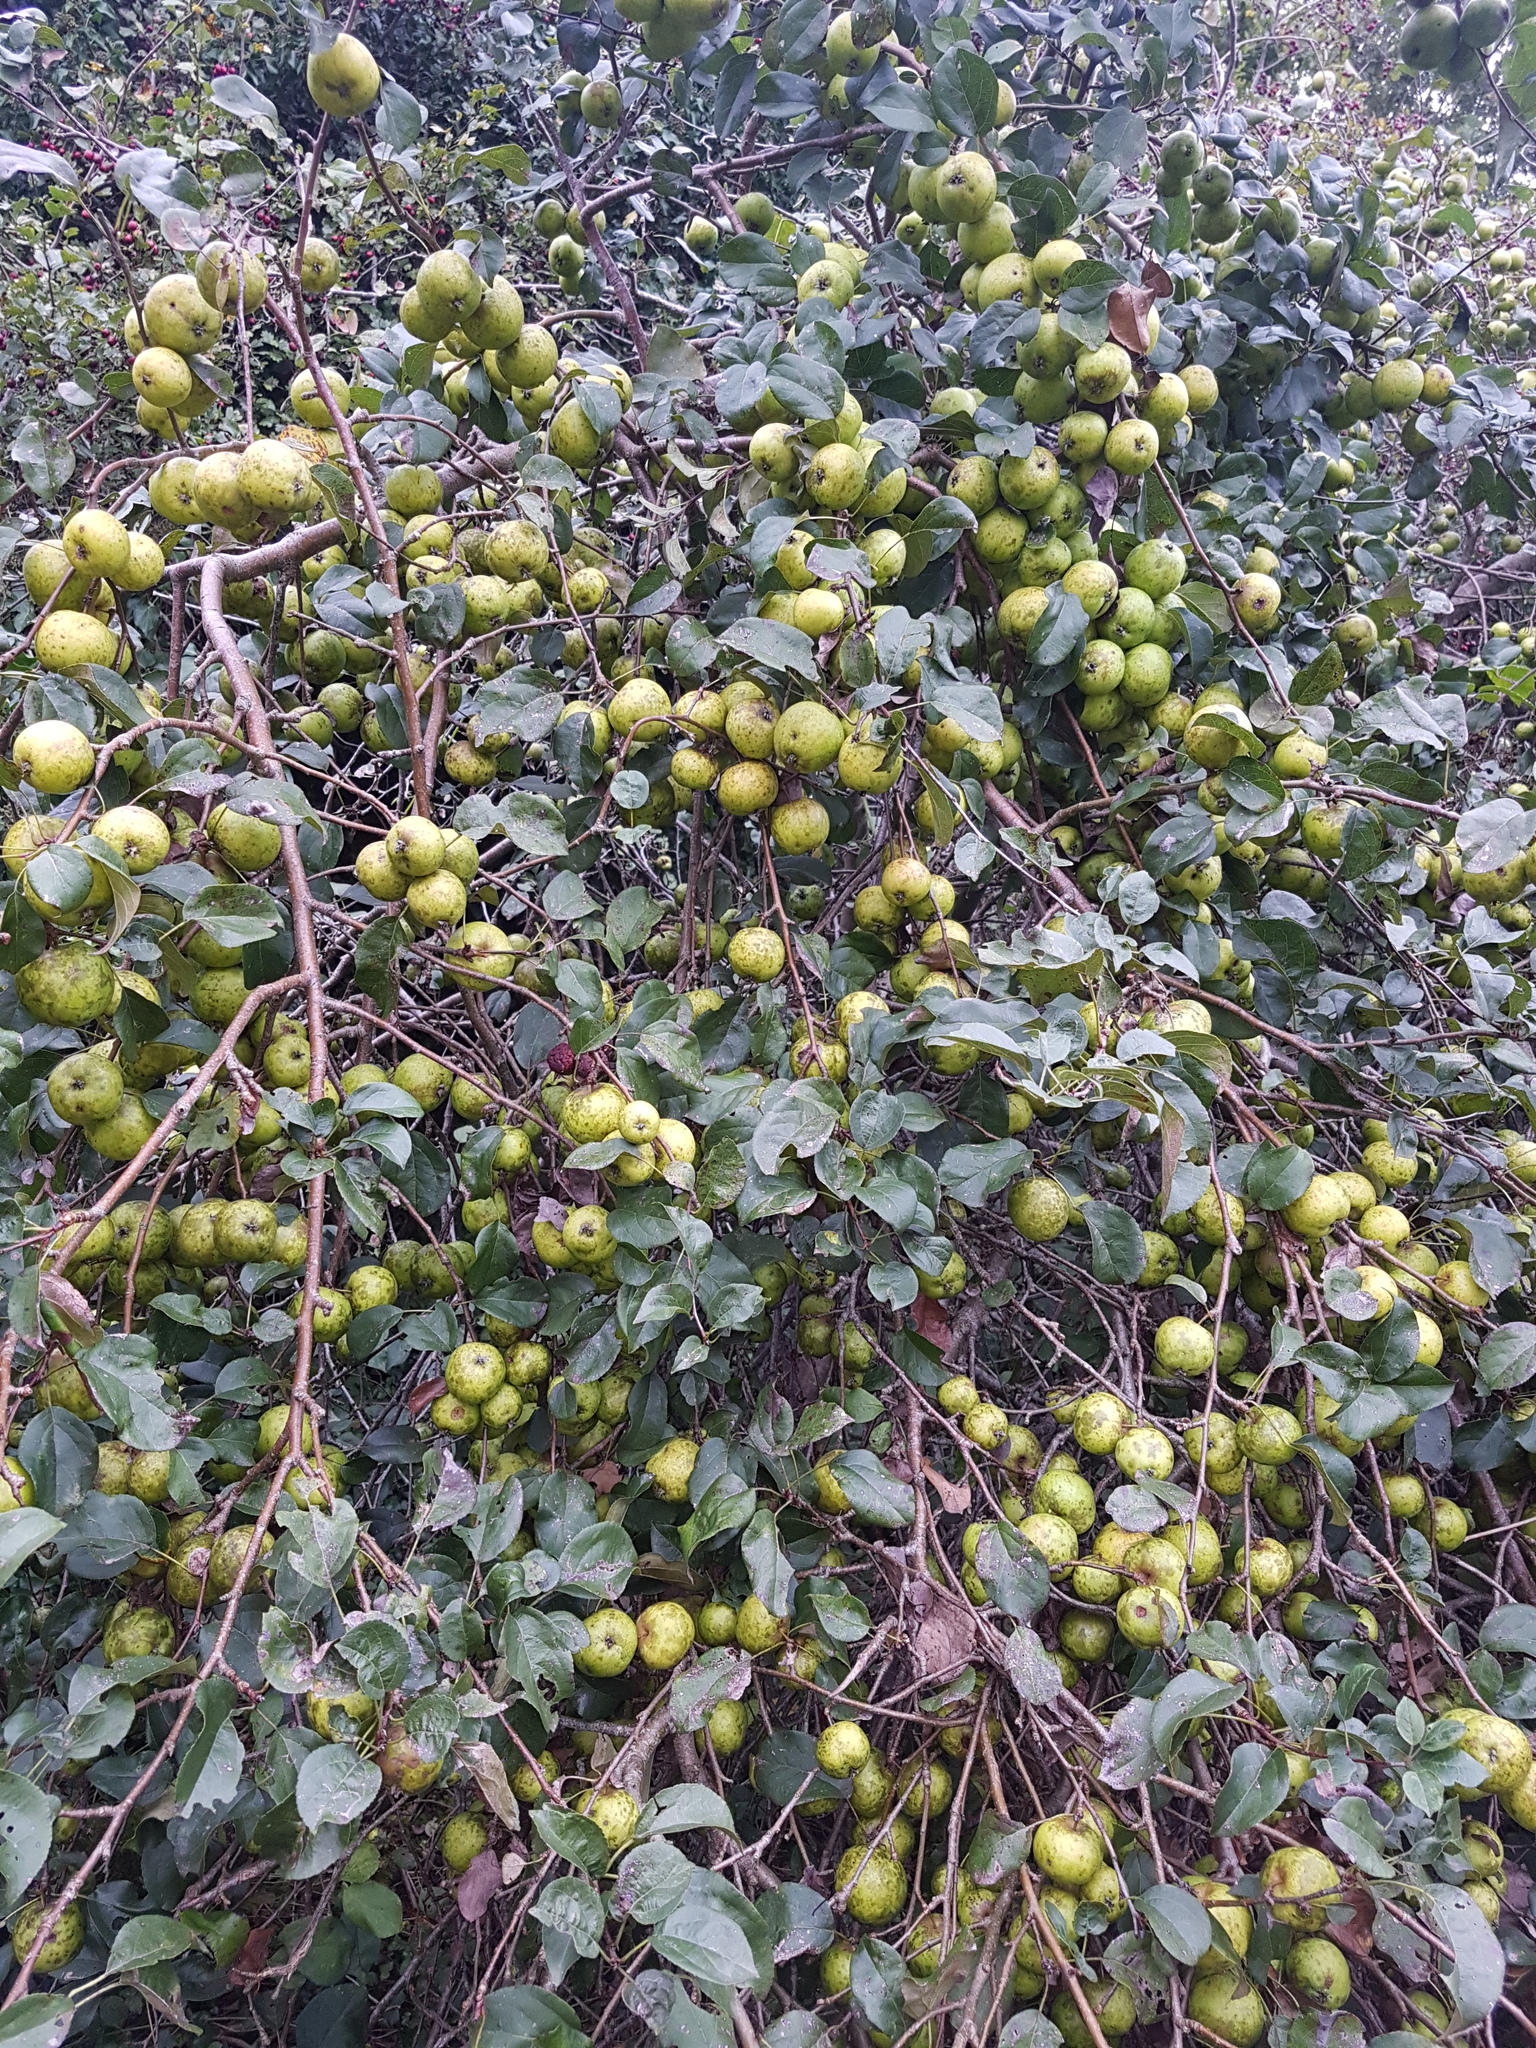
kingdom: Plantae
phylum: Tracheophyta
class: Magnoliopsida
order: Rosales
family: Rosaceae
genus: Malus
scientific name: Malus domestica
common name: Apple
